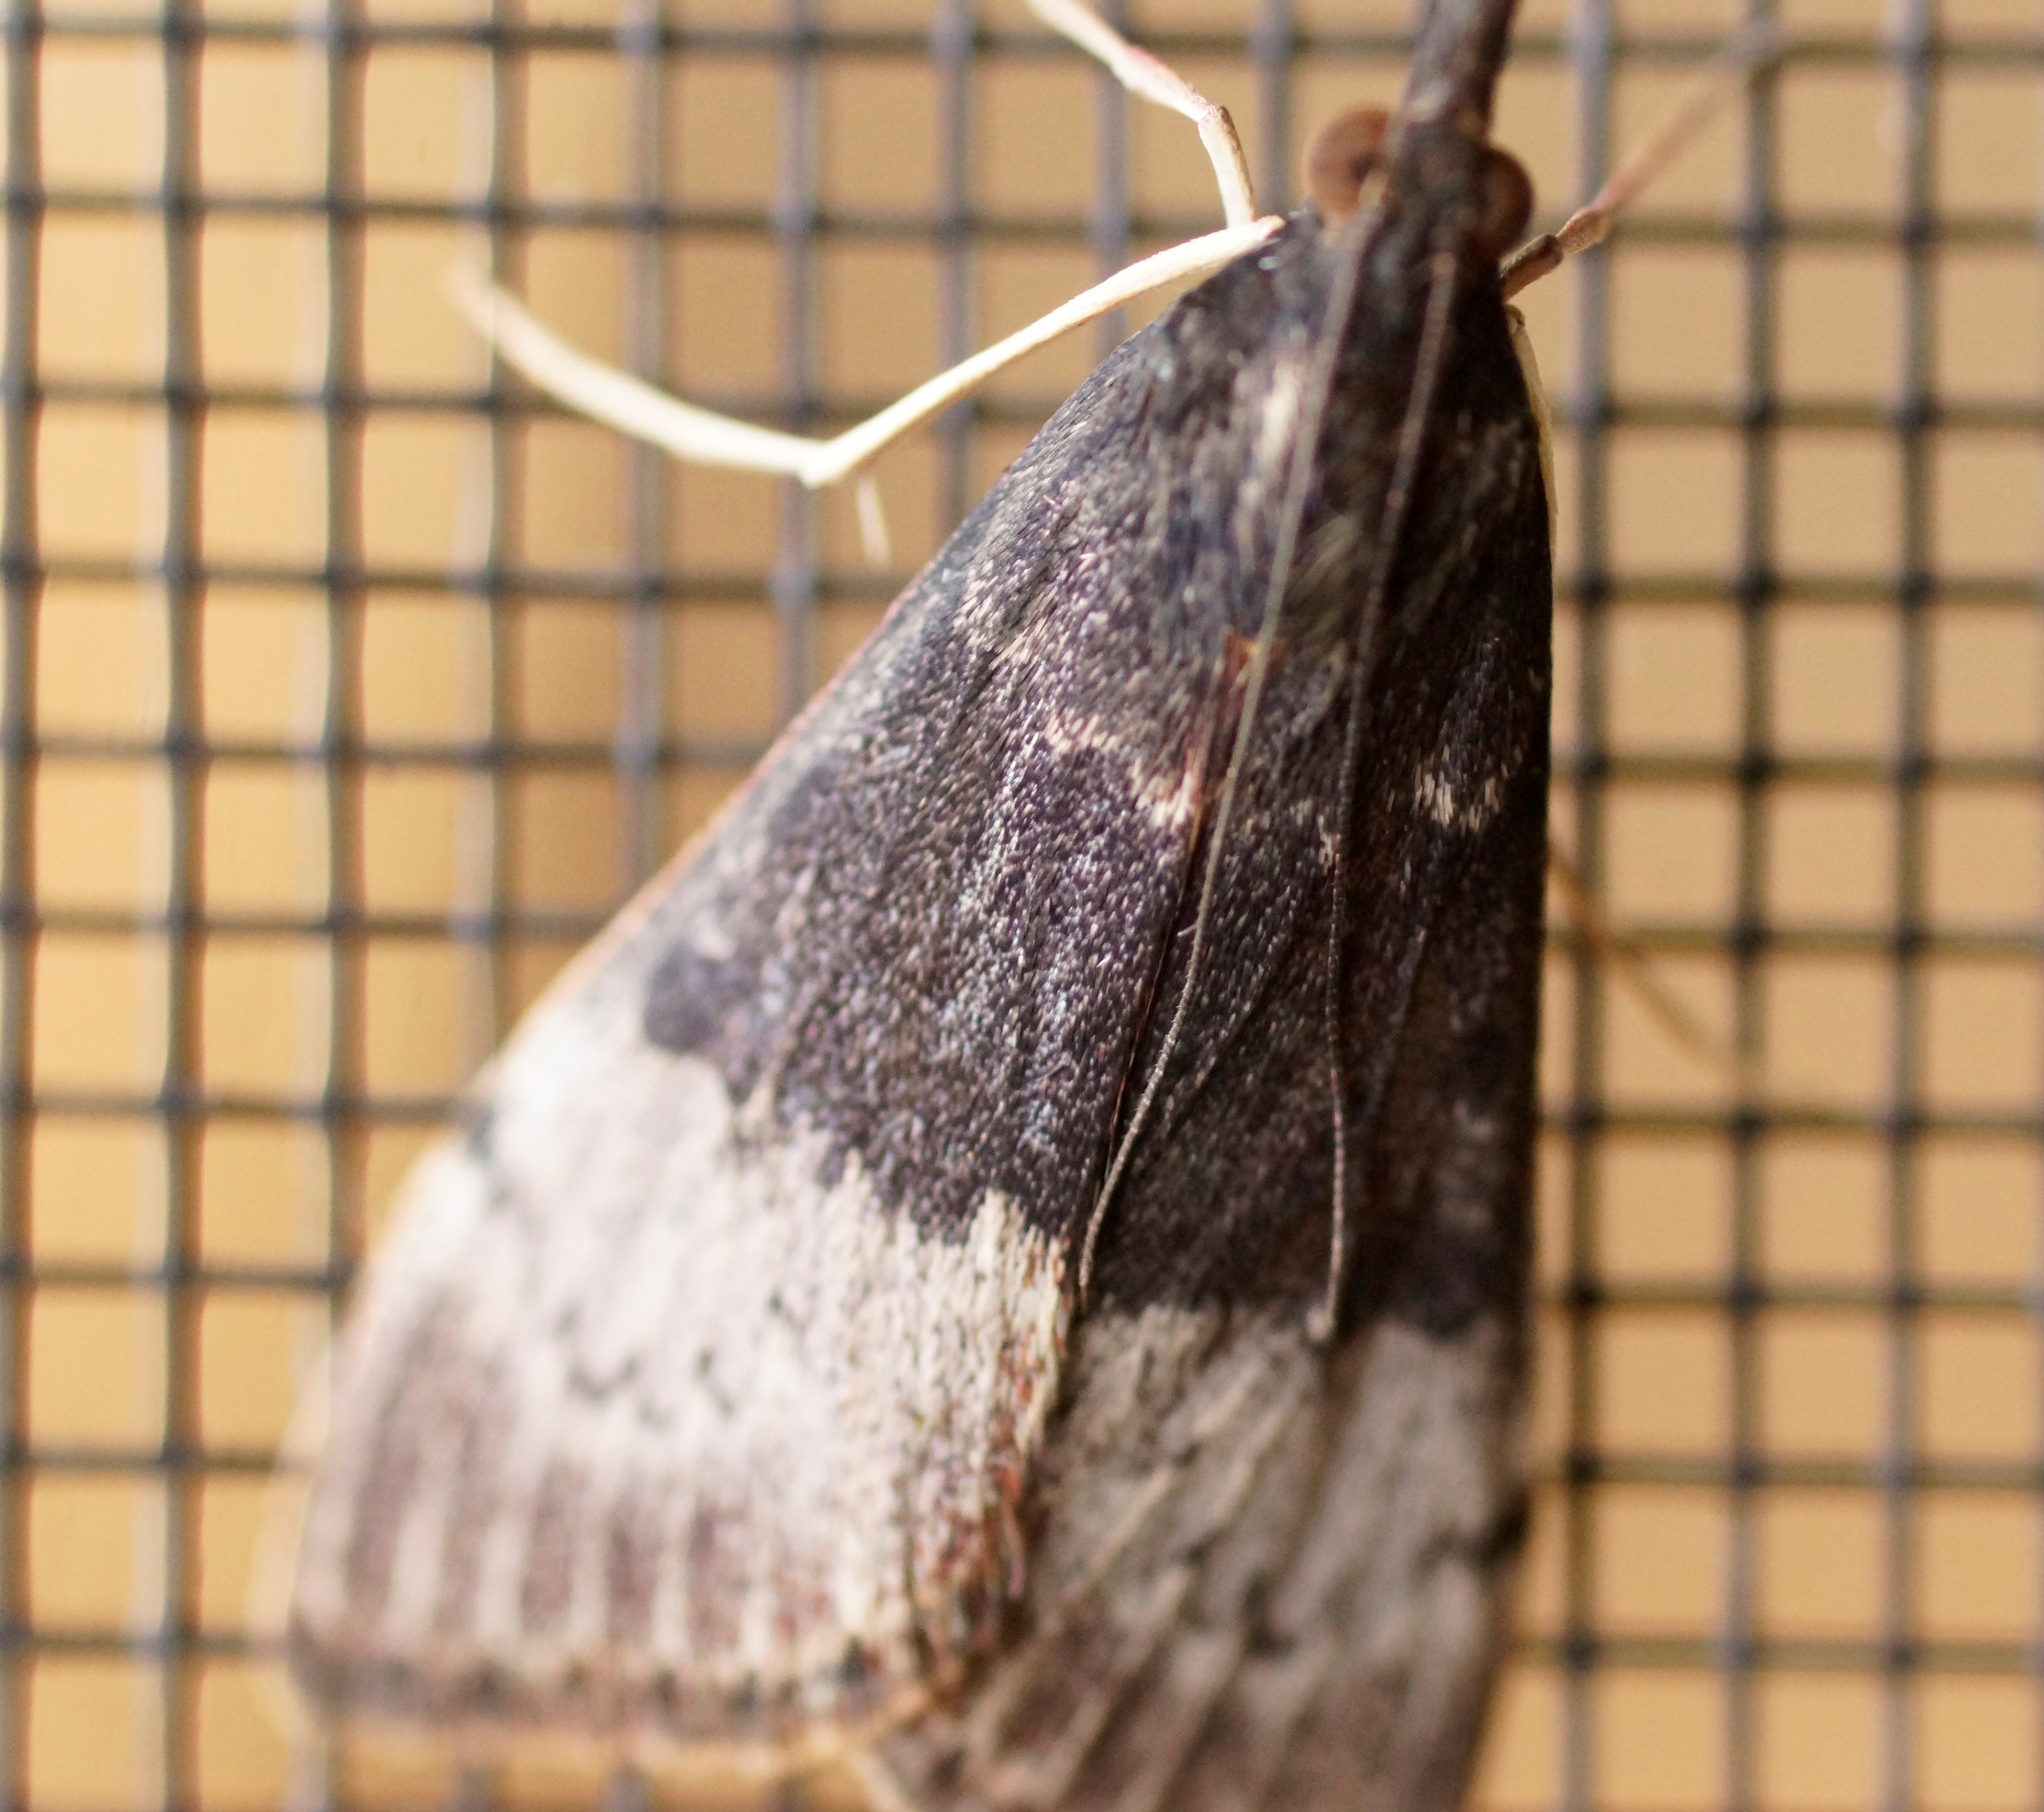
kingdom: Animalia
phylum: Arthropoda
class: Insecta
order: Lepidoptera
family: Crambidae
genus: Uresiphita
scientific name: Uresiphita ornithopteralis
